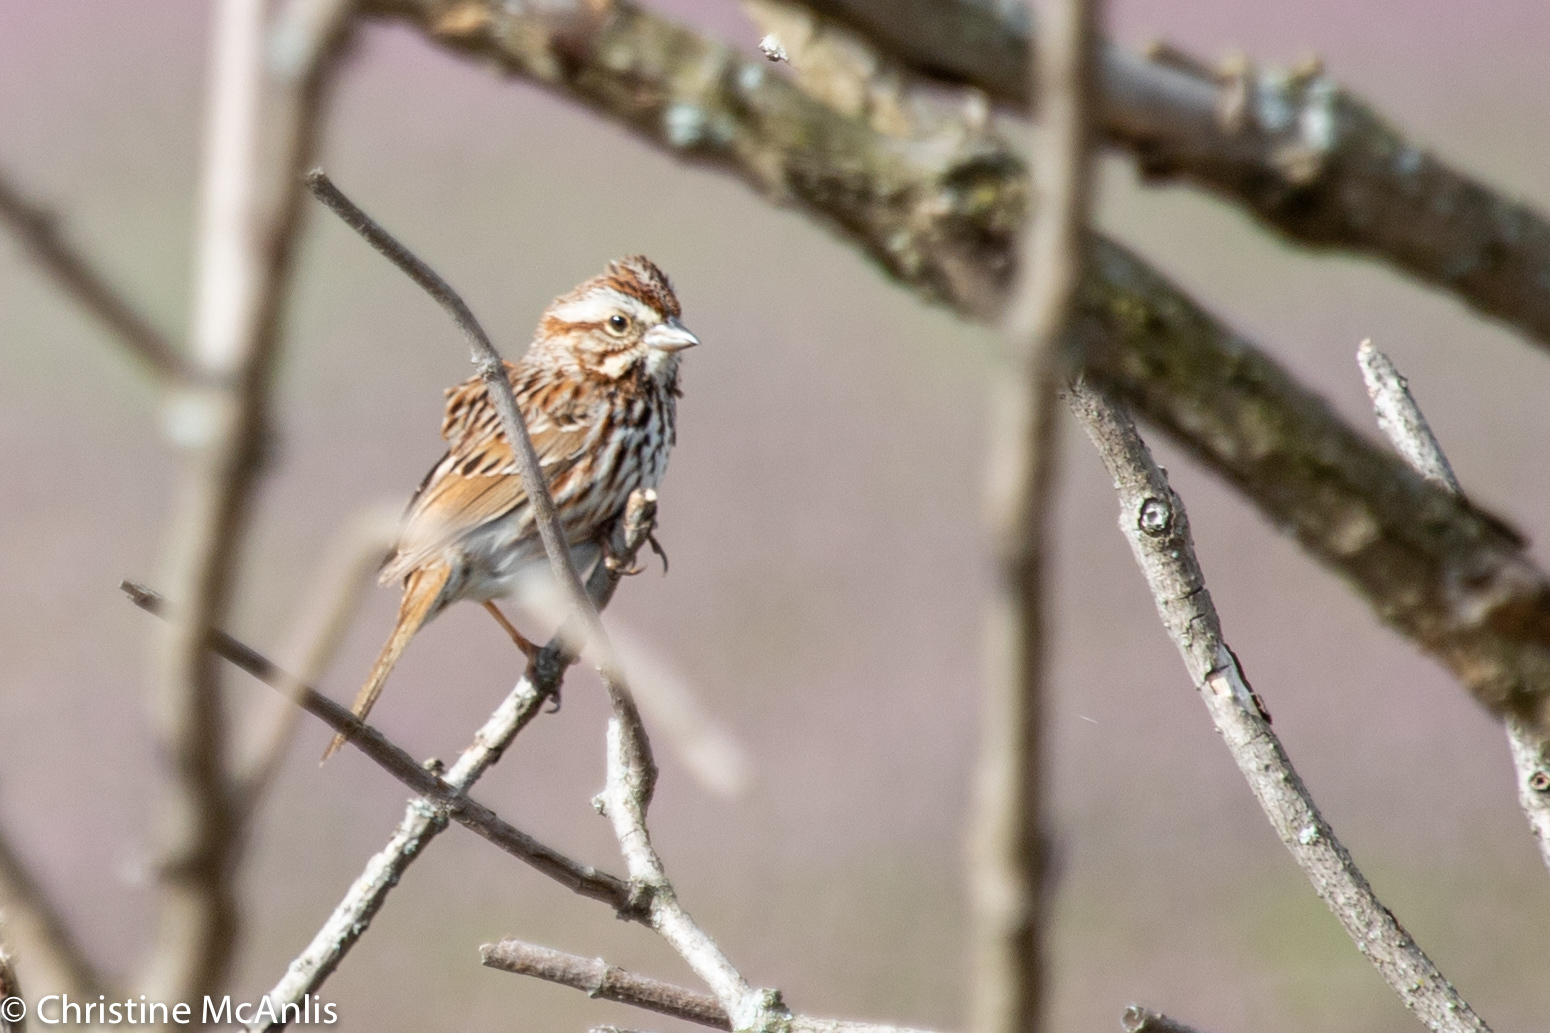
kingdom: Animalia
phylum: Chordata
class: Aves
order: Passeriformes
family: Passerellidae
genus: Melospiza
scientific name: Melospiza melodia
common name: Song sparrow
